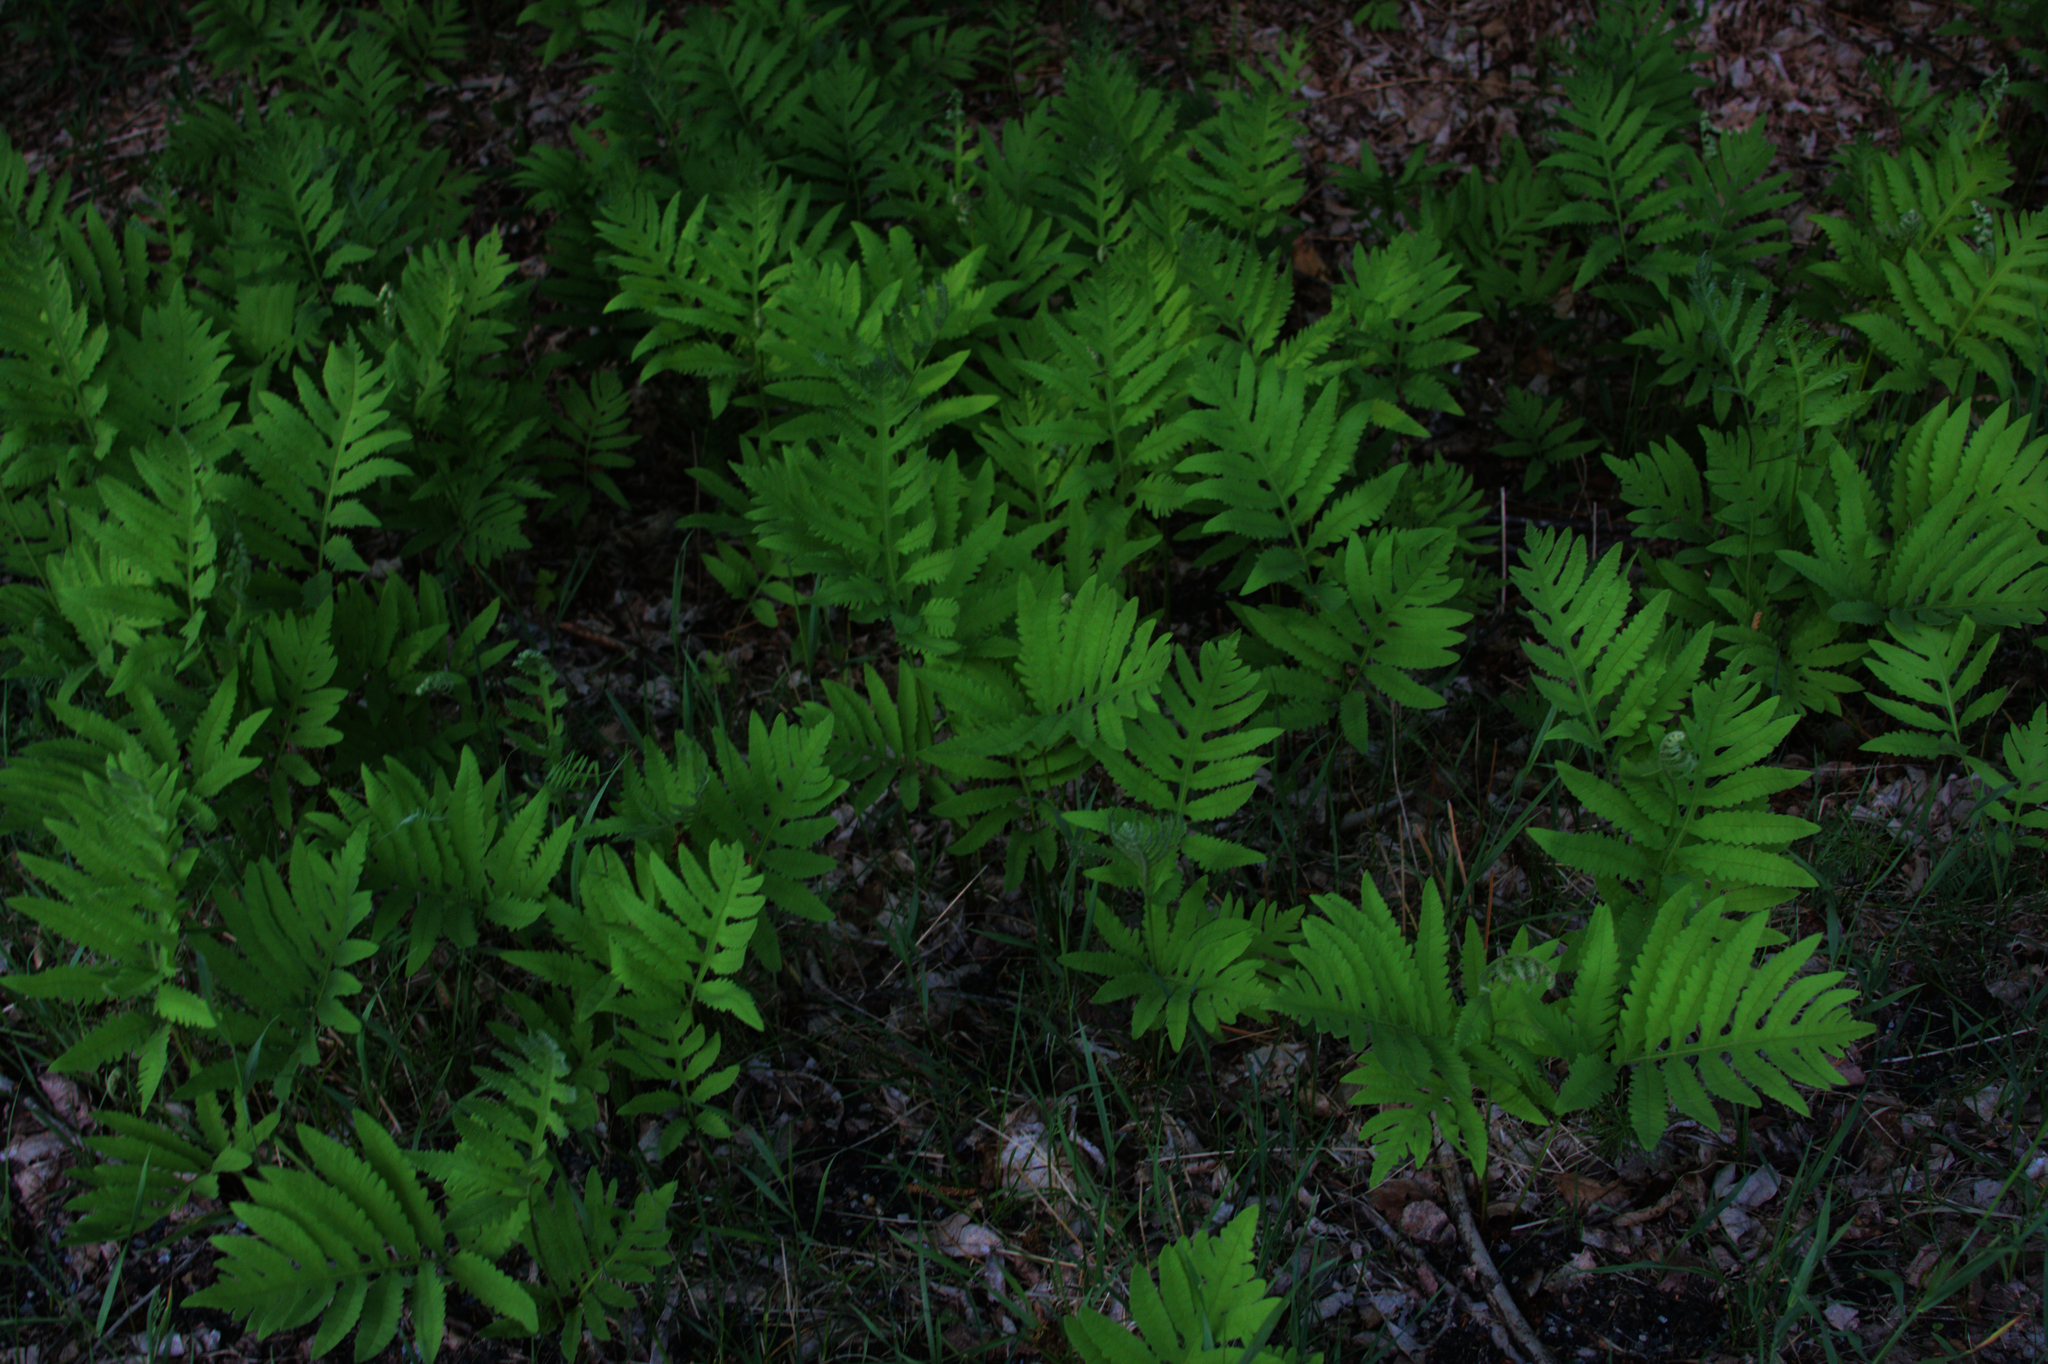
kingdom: Plantae
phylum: Tracheophyta
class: Polypodiopsida
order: Polypodiales
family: Onocleaceae
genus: Onoclea
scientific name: Onoclea sensibilis
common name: Sensitive fern
